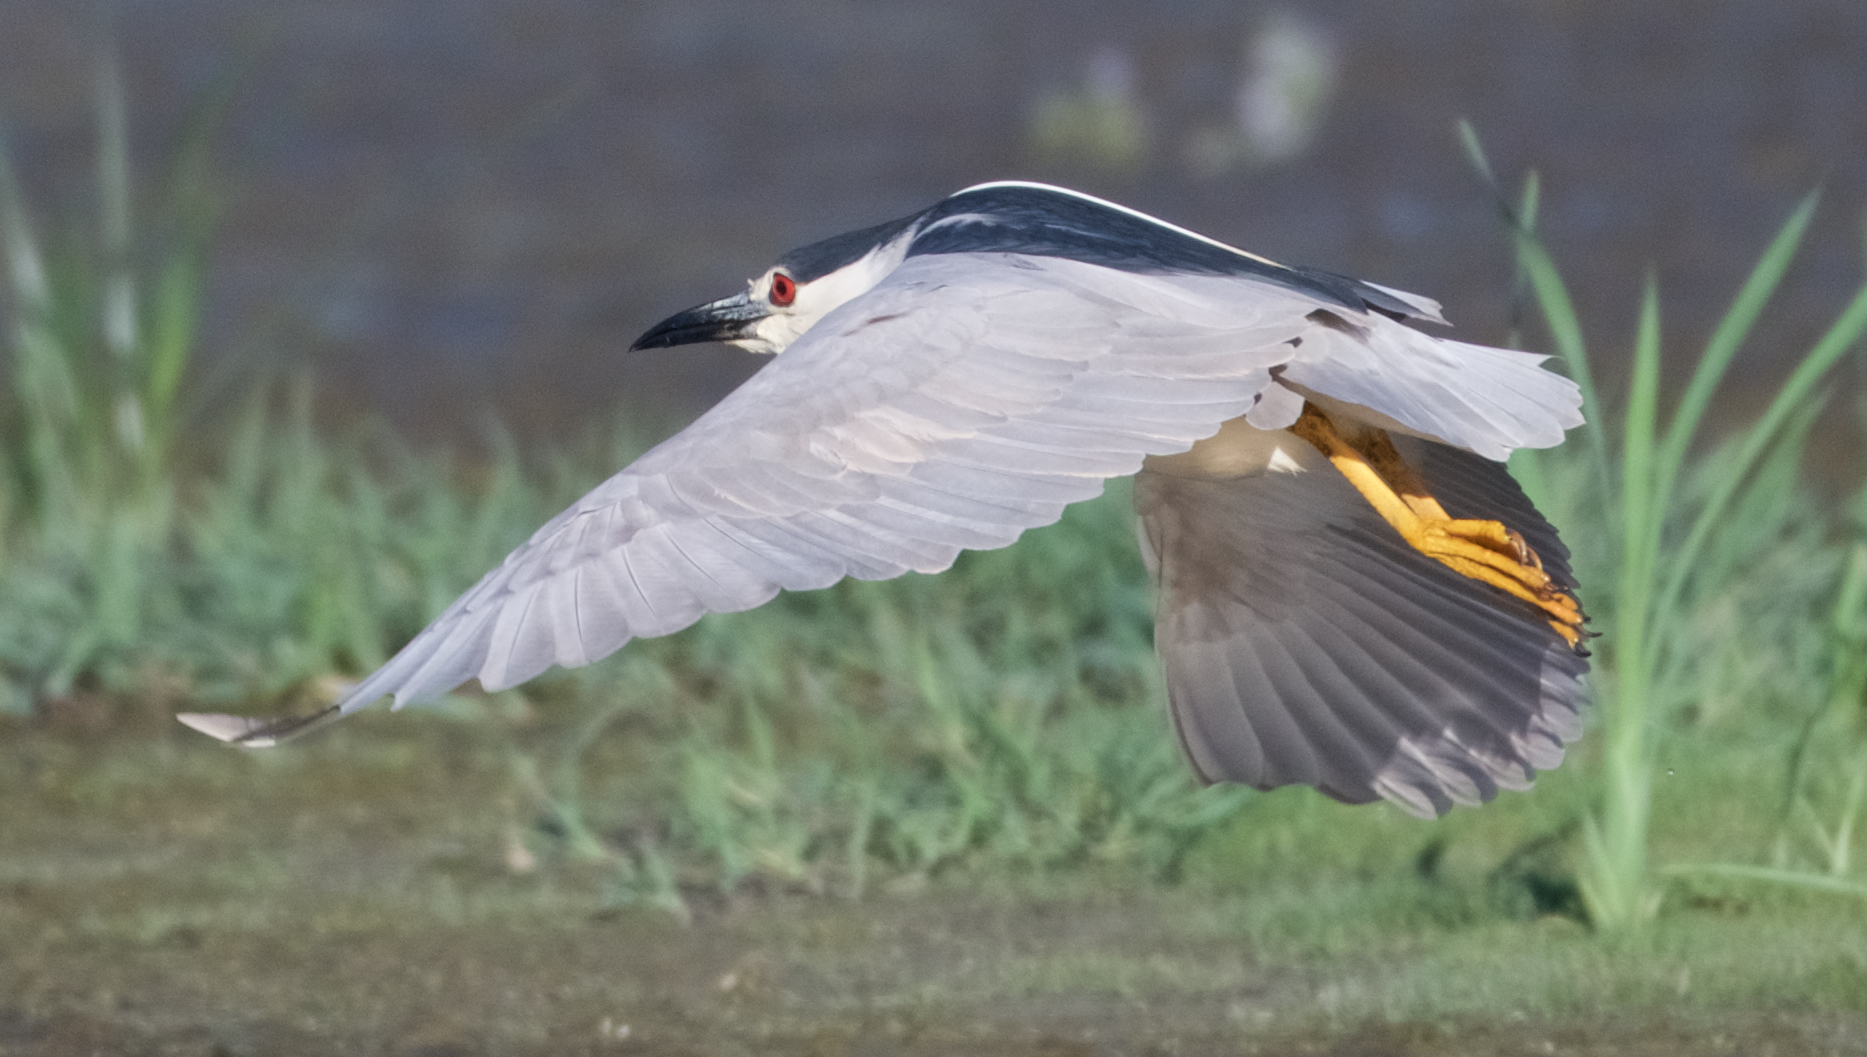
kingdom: Animalia
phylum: Chordata
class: Aves
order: Pelecaniformes
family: Ardeidae
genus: Nycticorax
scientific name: Nycticorax nycticorax
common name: Black-crowned night heron
